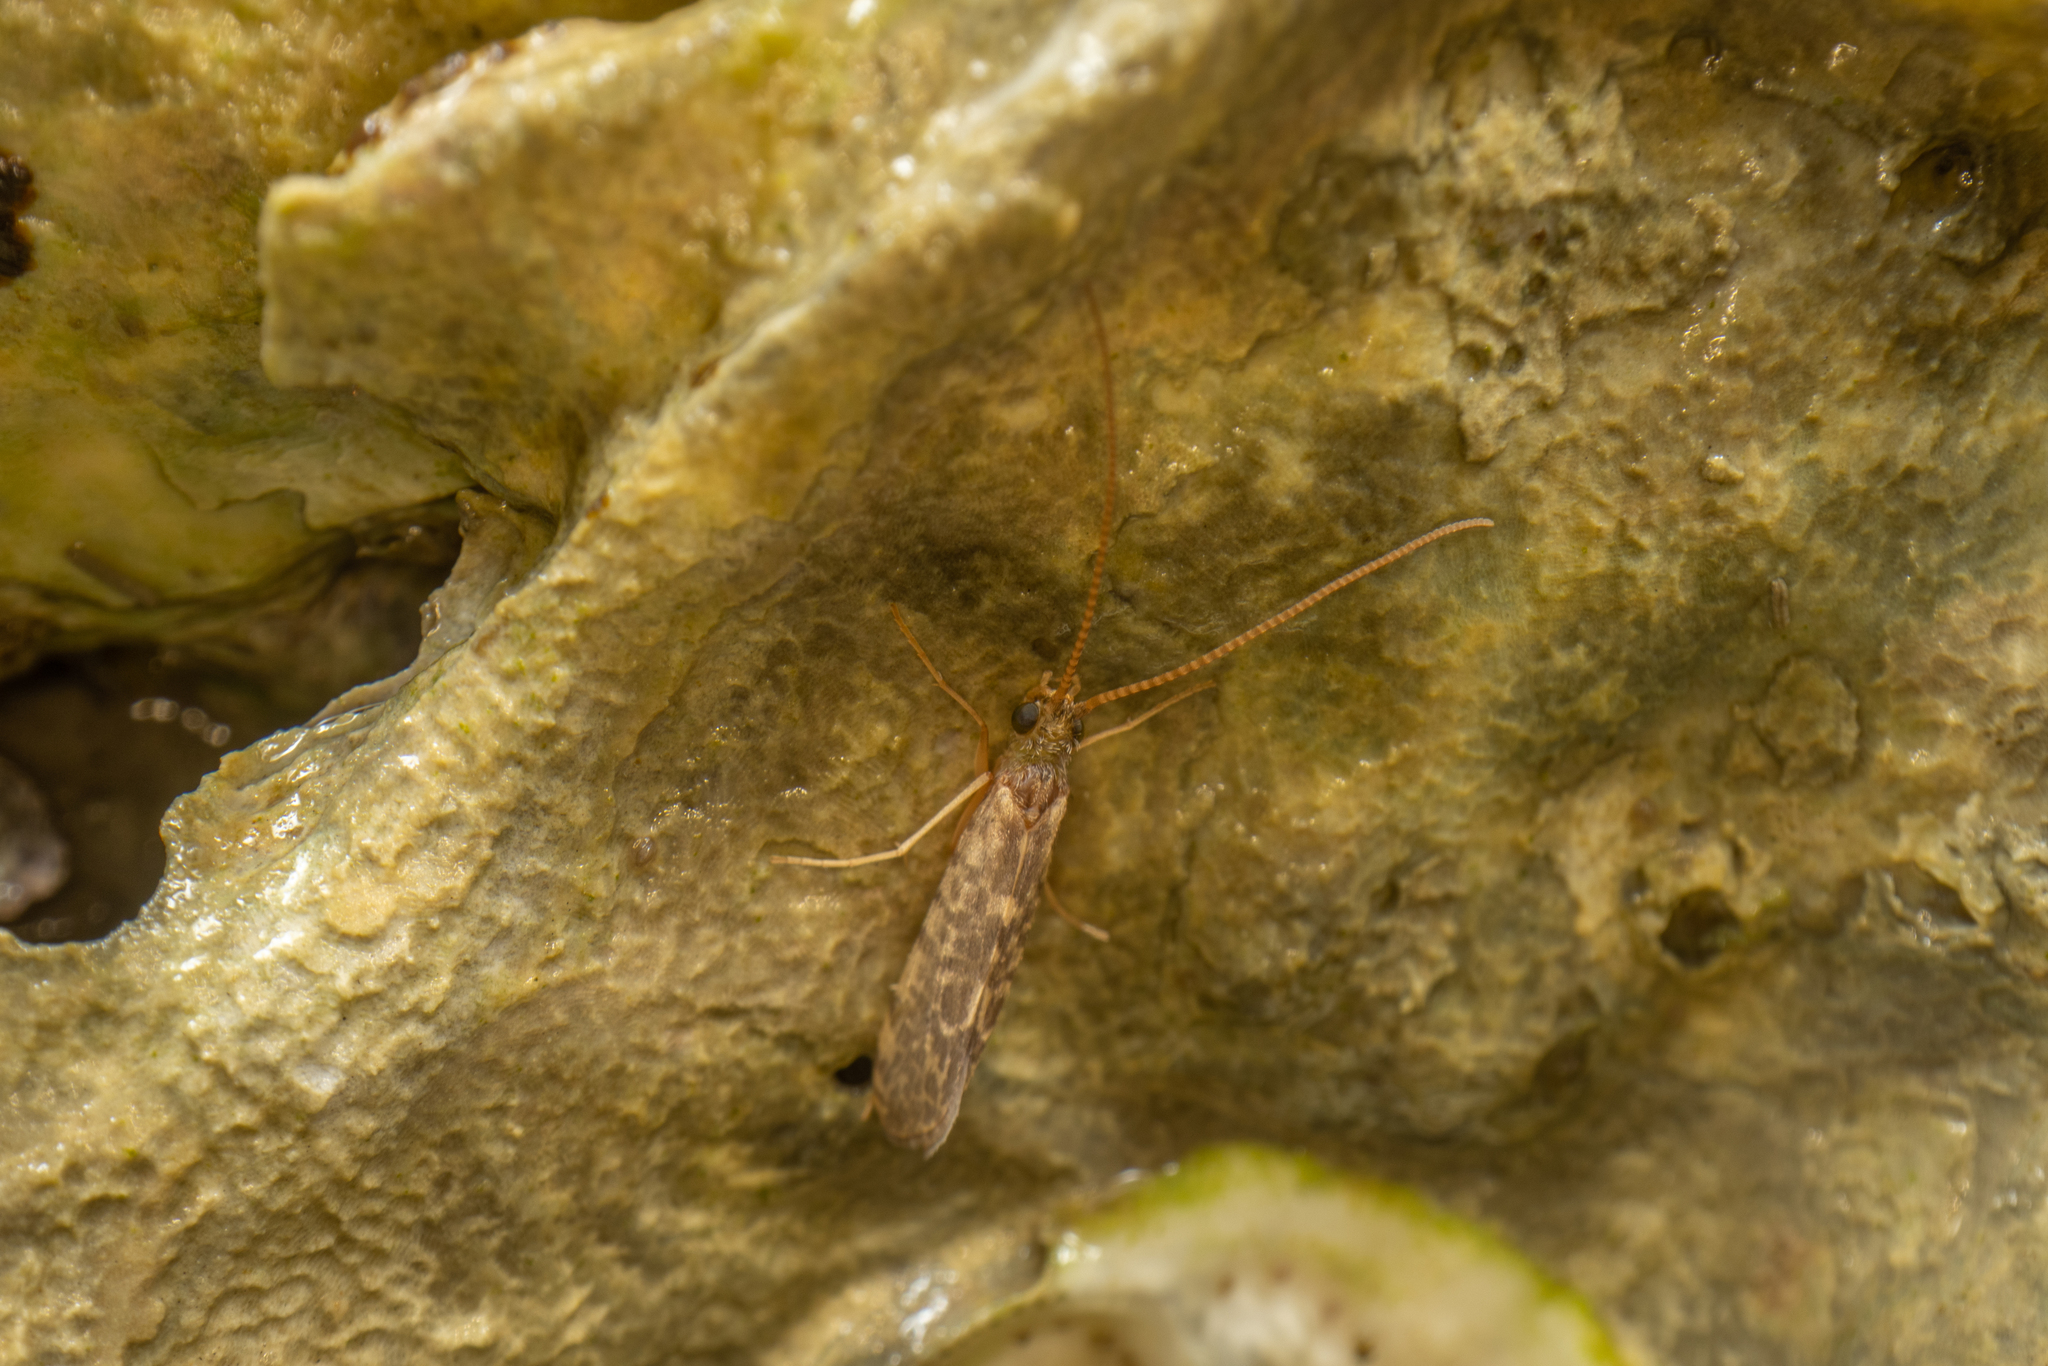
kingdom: Animalia
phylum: Arthropoda
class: Insecta
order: Trichoptera
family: Chathamiidae
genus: Philanisus
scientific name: Philanisus plebeius
